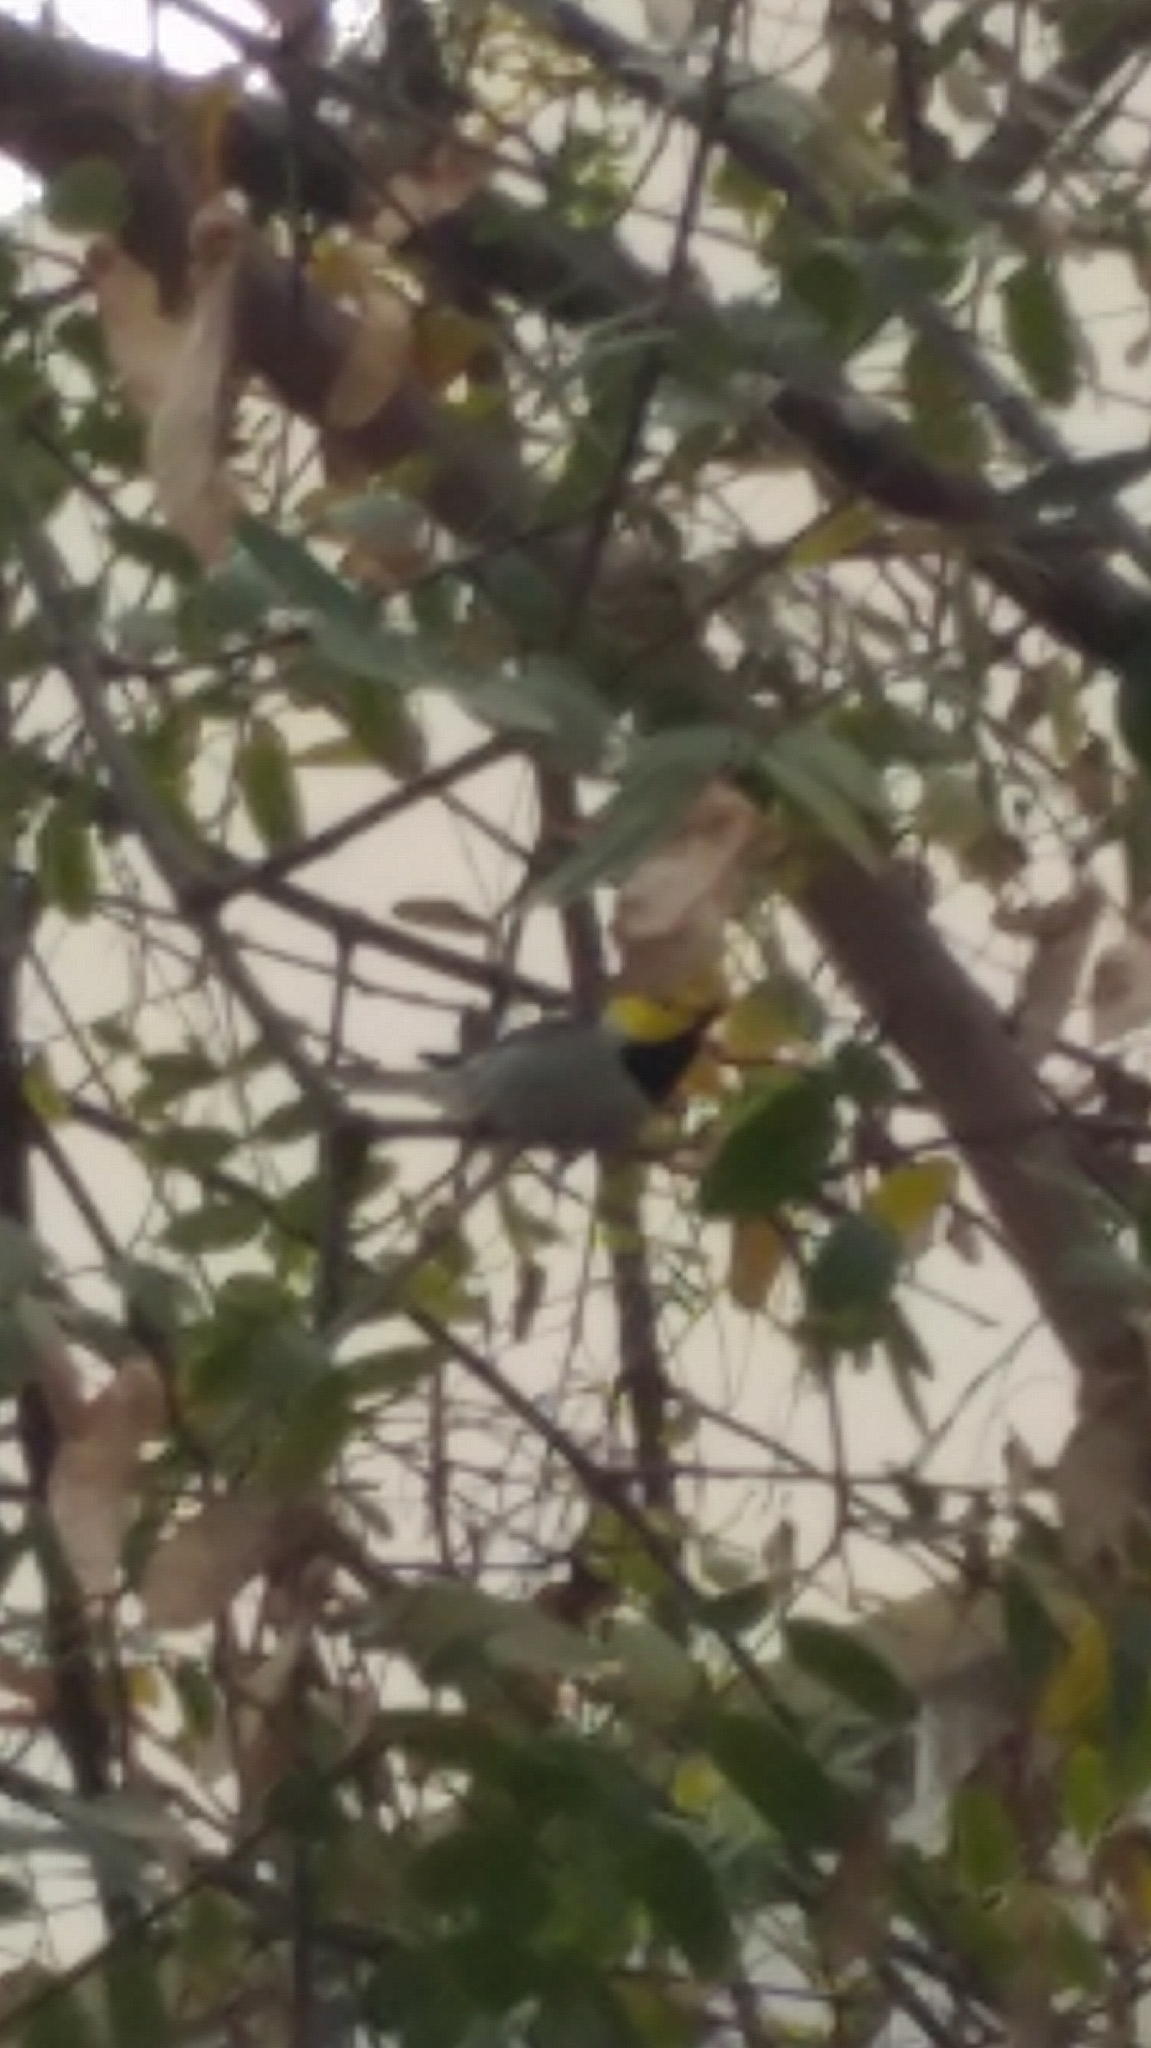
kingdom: Animalia
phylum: Chordata
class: Aves
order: Passeriformes
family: Parulidae
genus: Setophaga
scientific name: Setophaga occidentalis
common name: Hermit warbler
